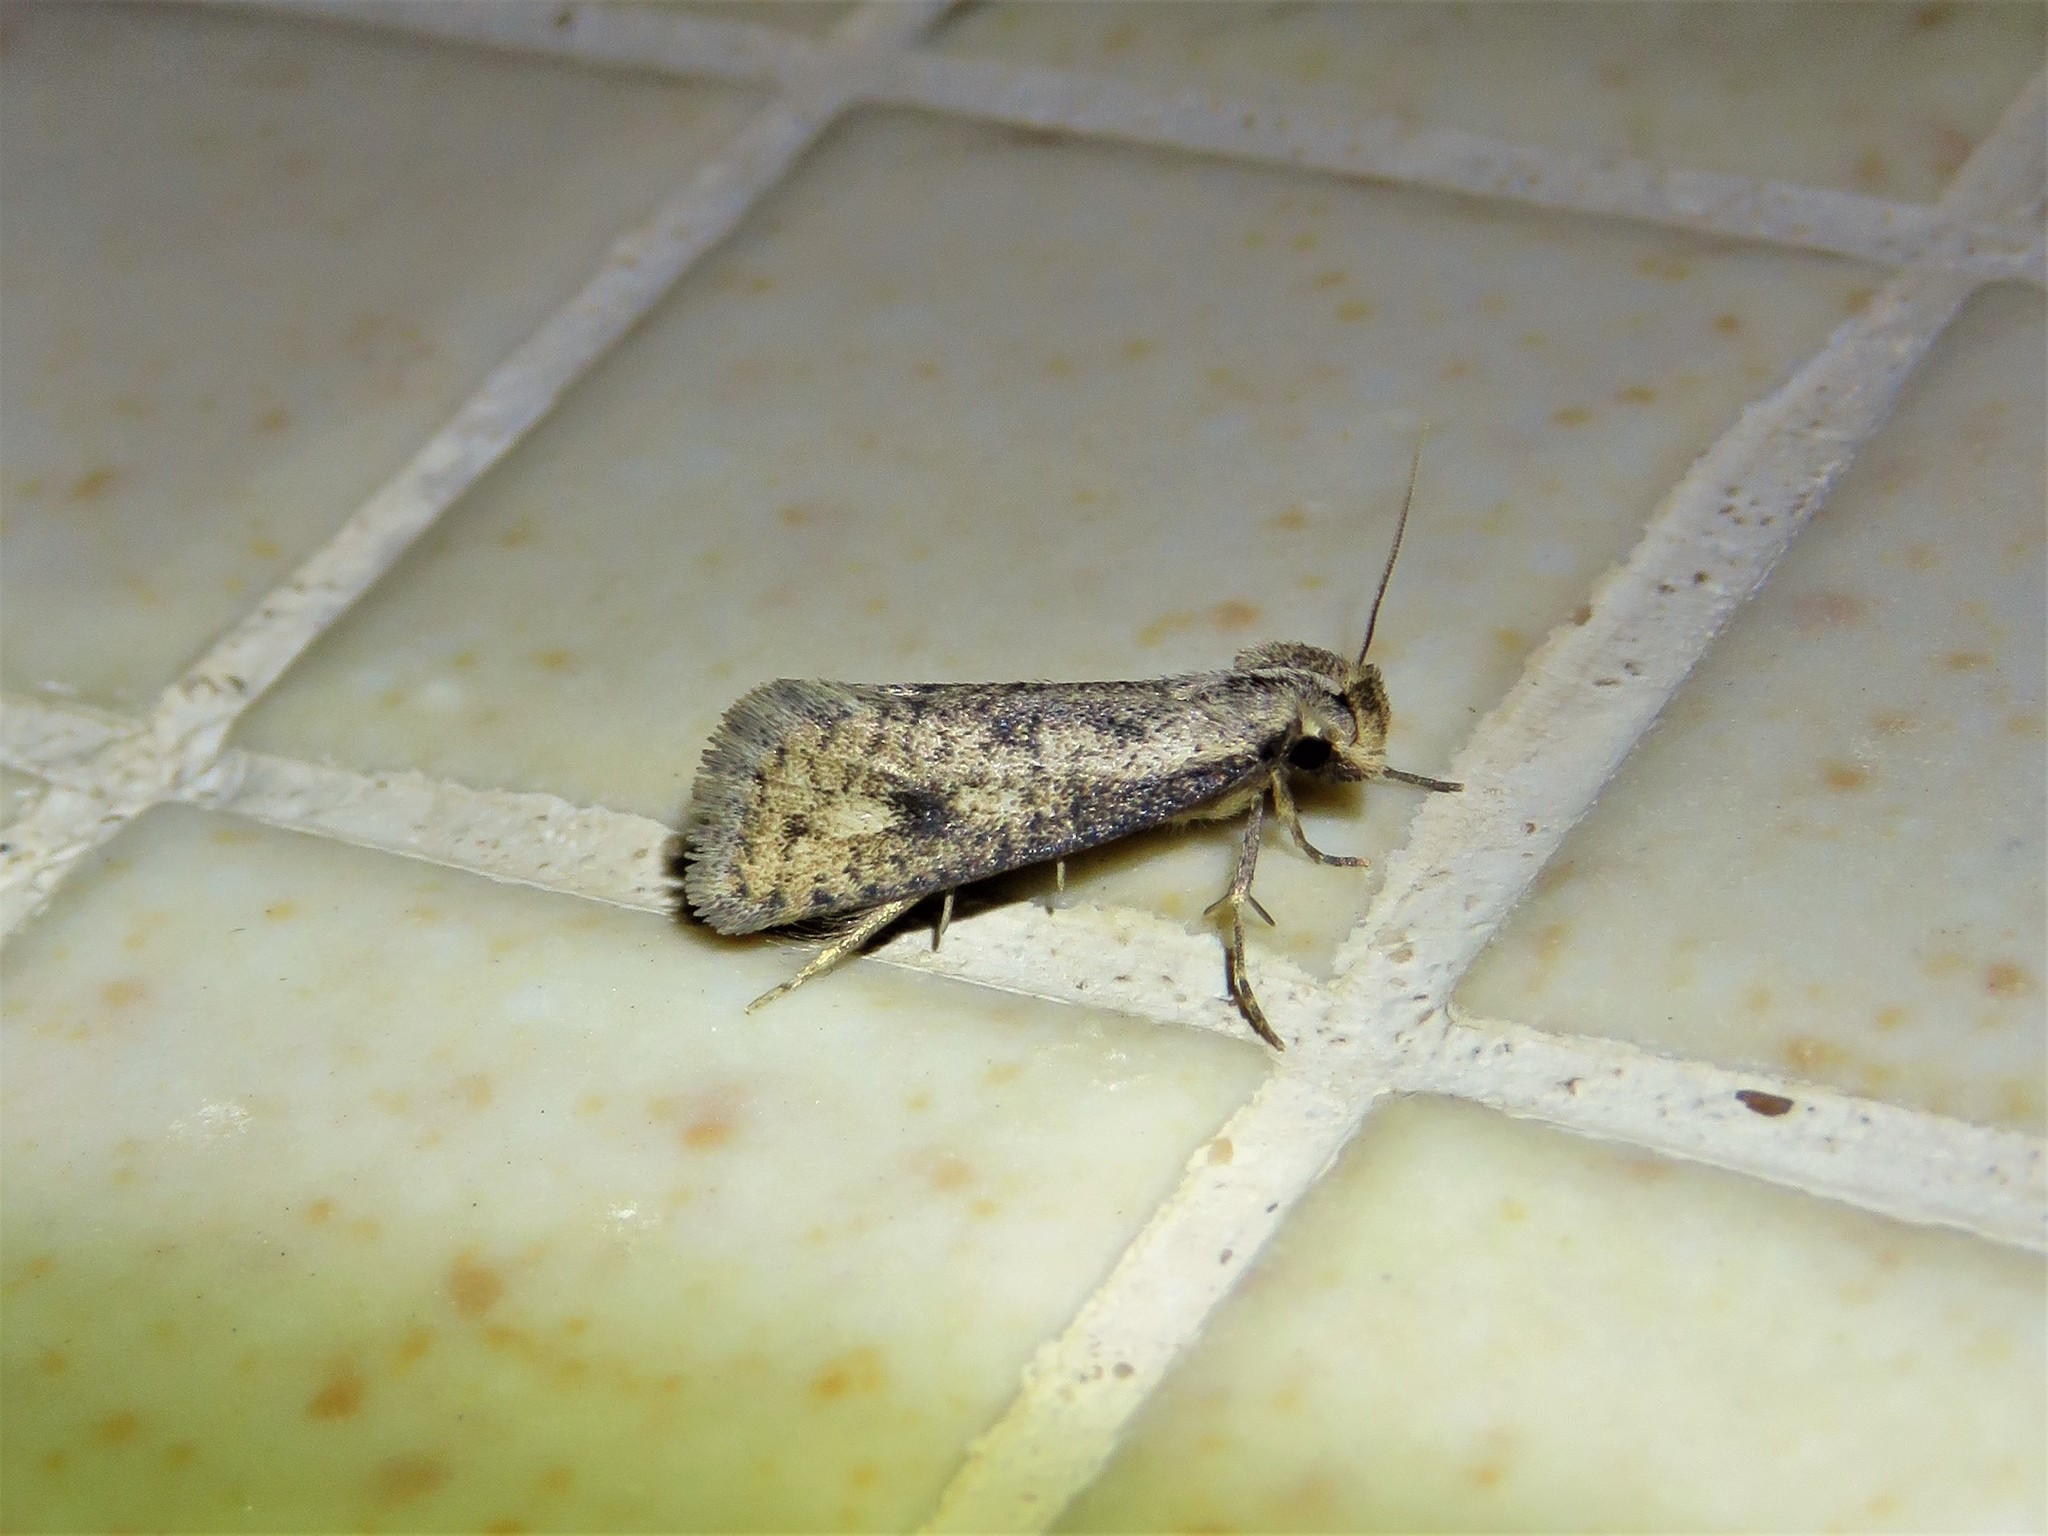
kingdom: Animalia
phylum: Arthropoda
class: Insecta
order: Lepidoptera
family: Tineidae
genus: Acrolophus
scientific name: Acrolophus mortipennella
